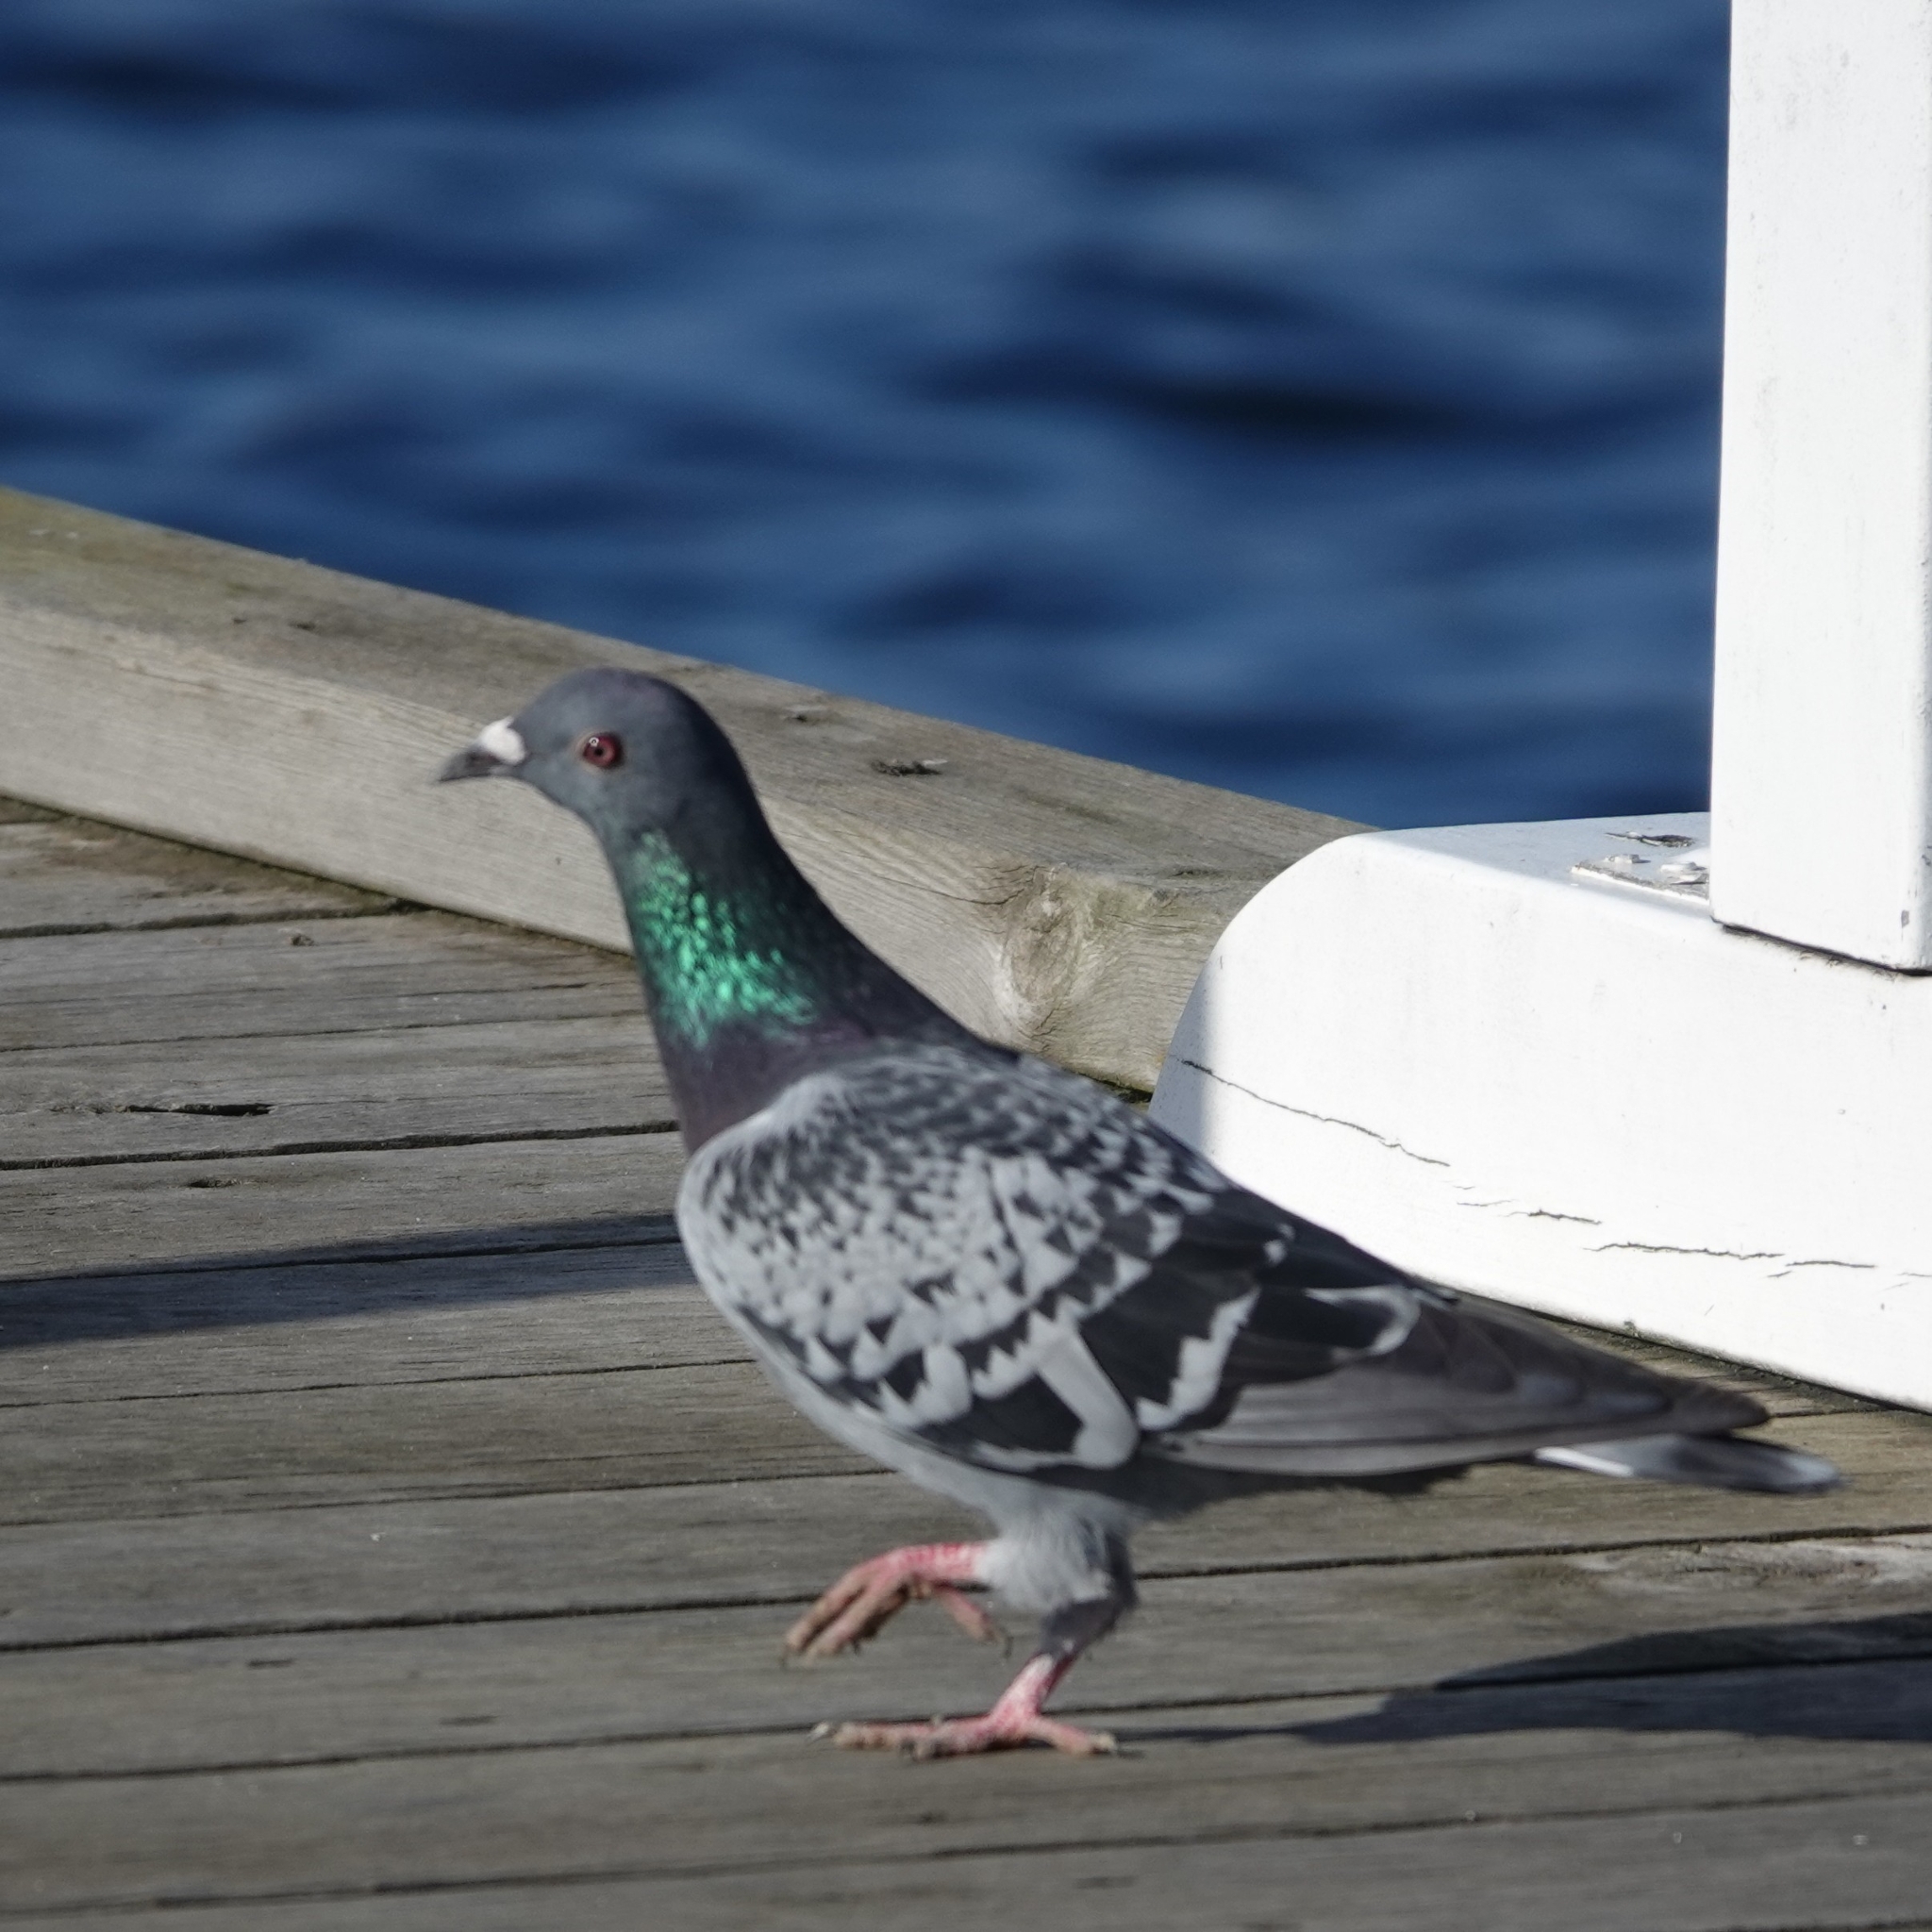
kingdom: Animalia
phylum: Chordata
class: Aves
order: Columbiformes
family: Columbidae
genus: Columba
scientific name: Columba livia
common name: Rock pigeon
